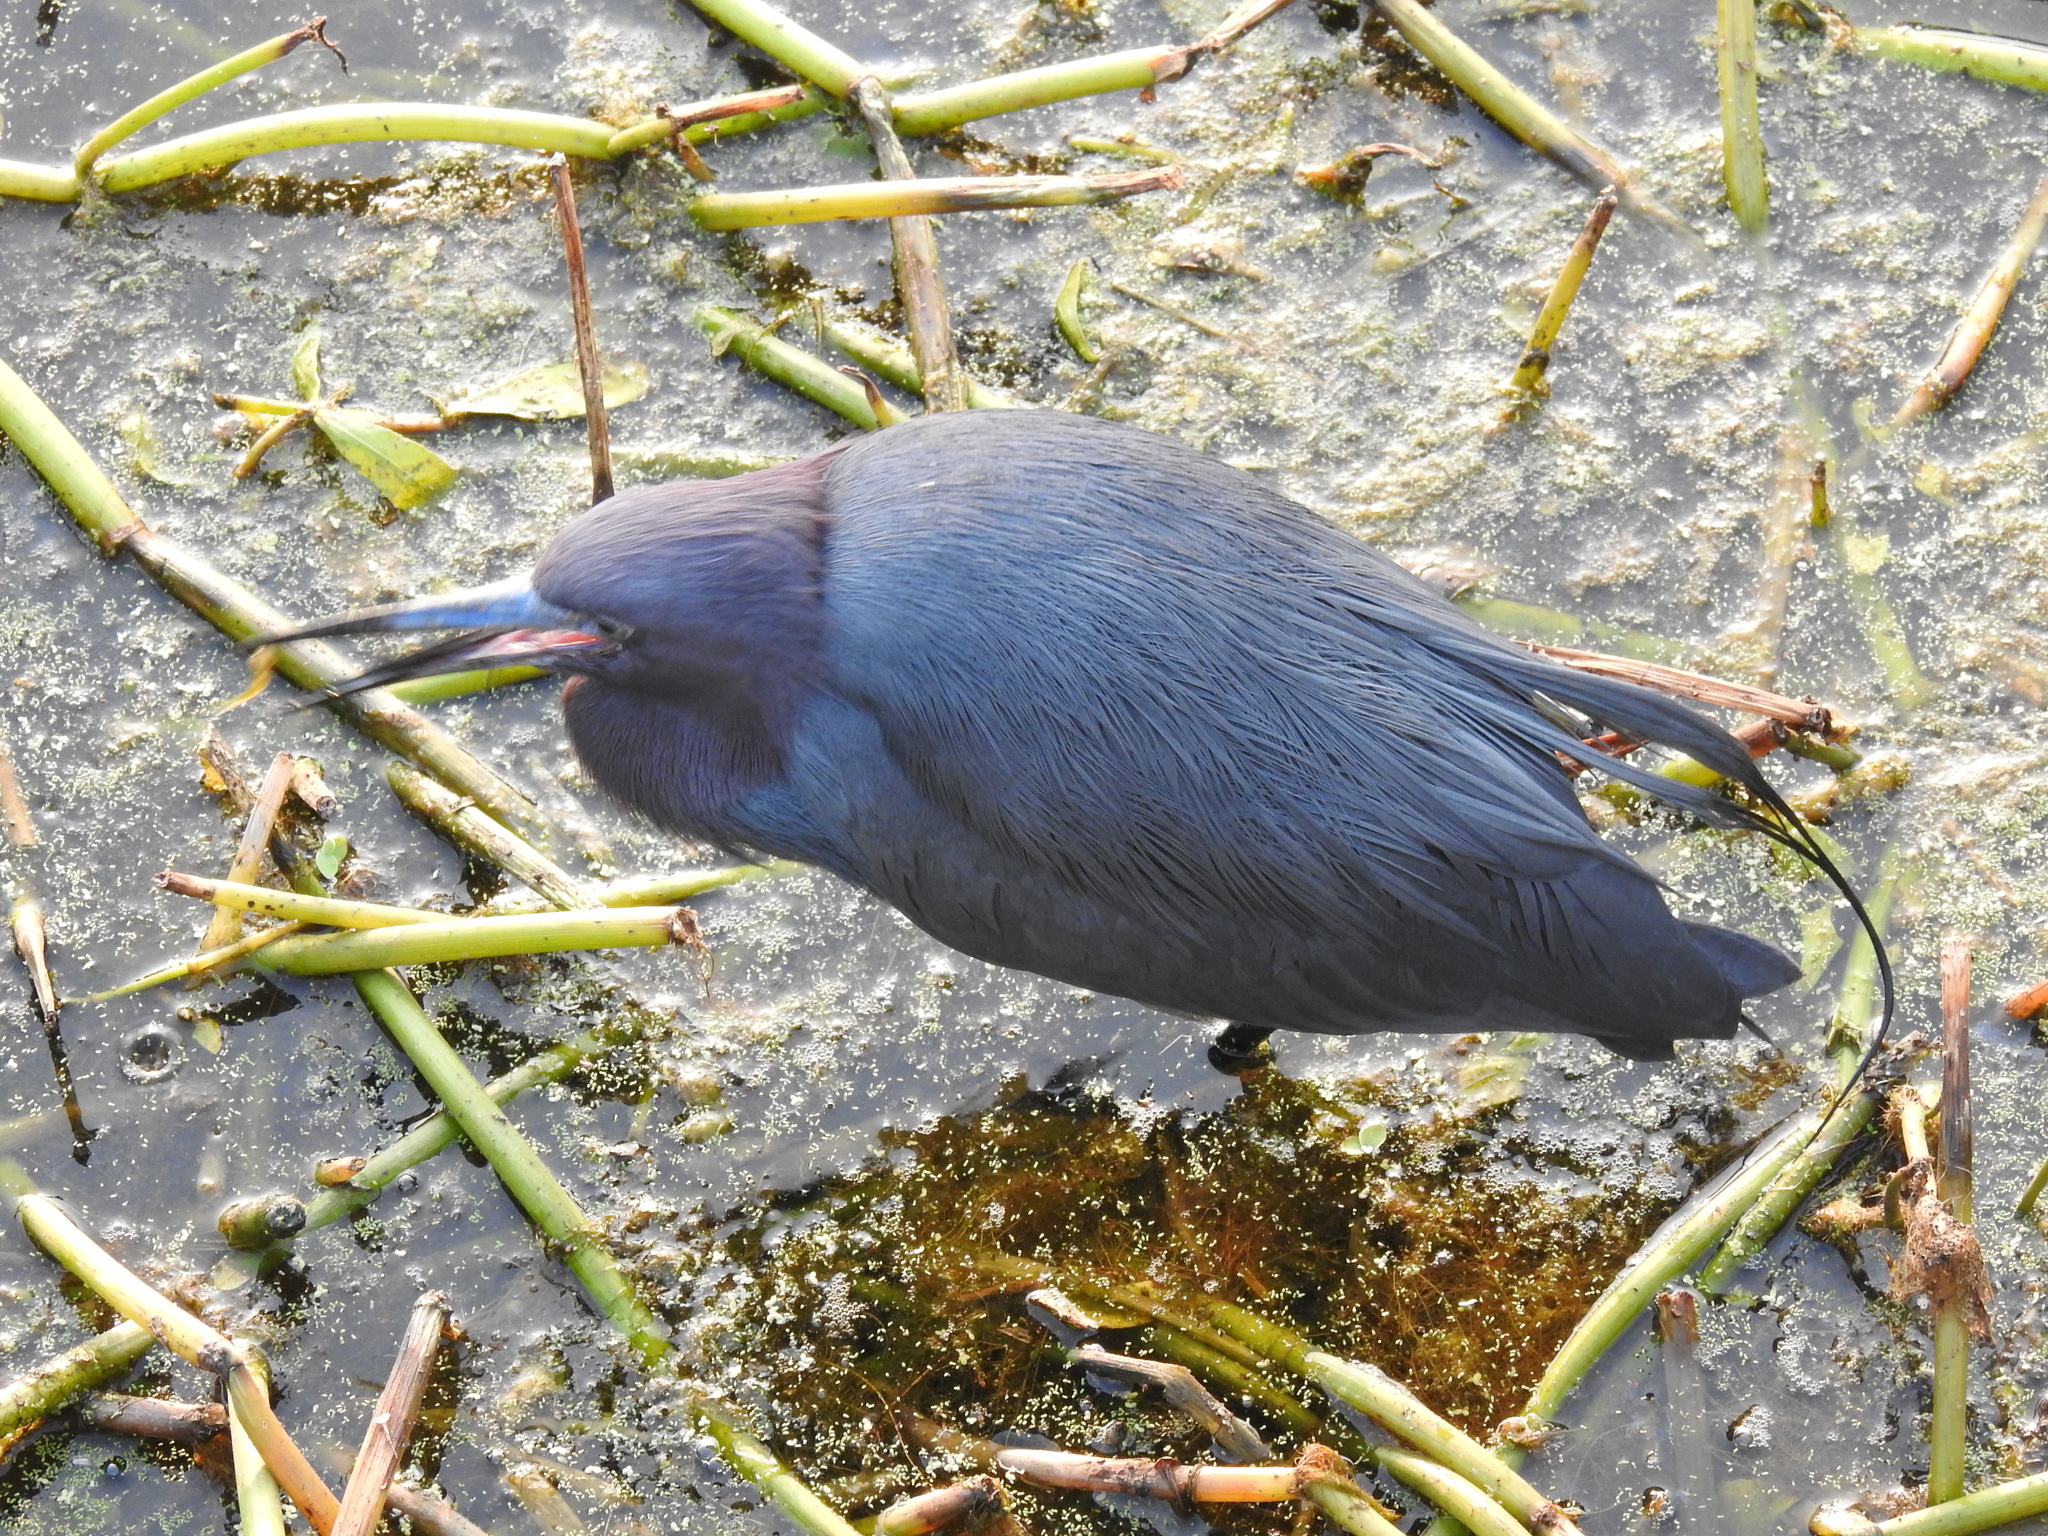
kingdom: Animalia
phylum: Chordata
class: Aves
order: Pelecaniformes
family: Ardeidae
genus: Egretta
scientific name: Egretta caerulea
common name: Little blue heron
